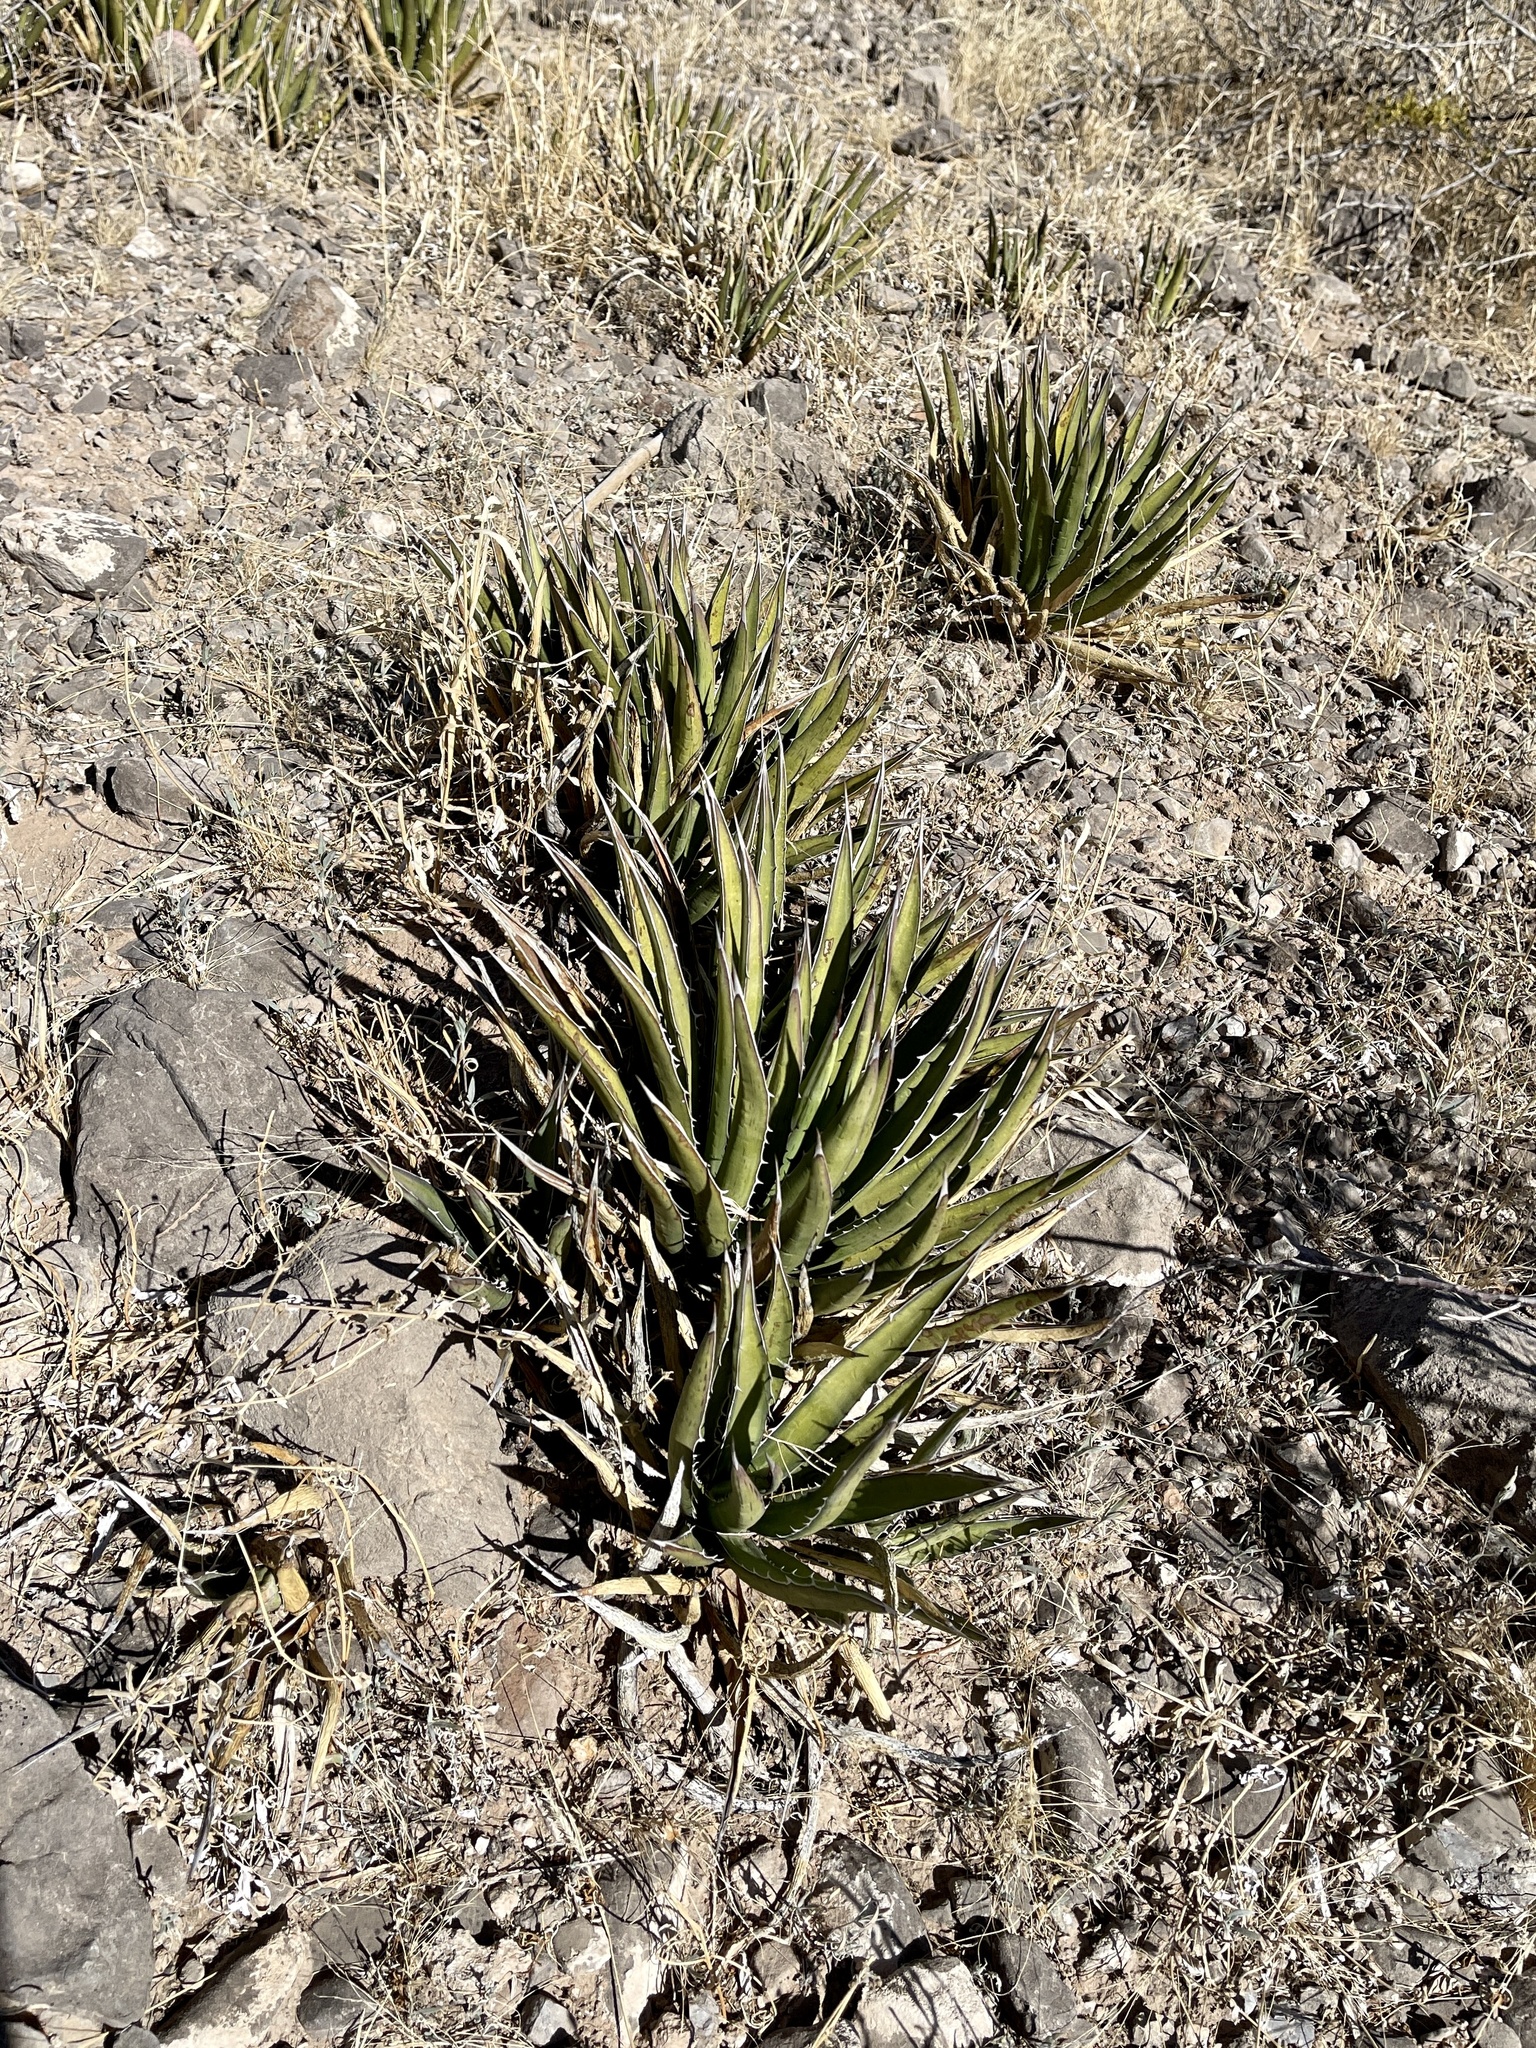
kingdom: Plantae
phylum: Tracheophyta
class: Liliopsida
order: Asparagales
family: Asparagaceae
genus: Agave
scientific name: Agave lechuguilla
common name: Lecheguilla agave
